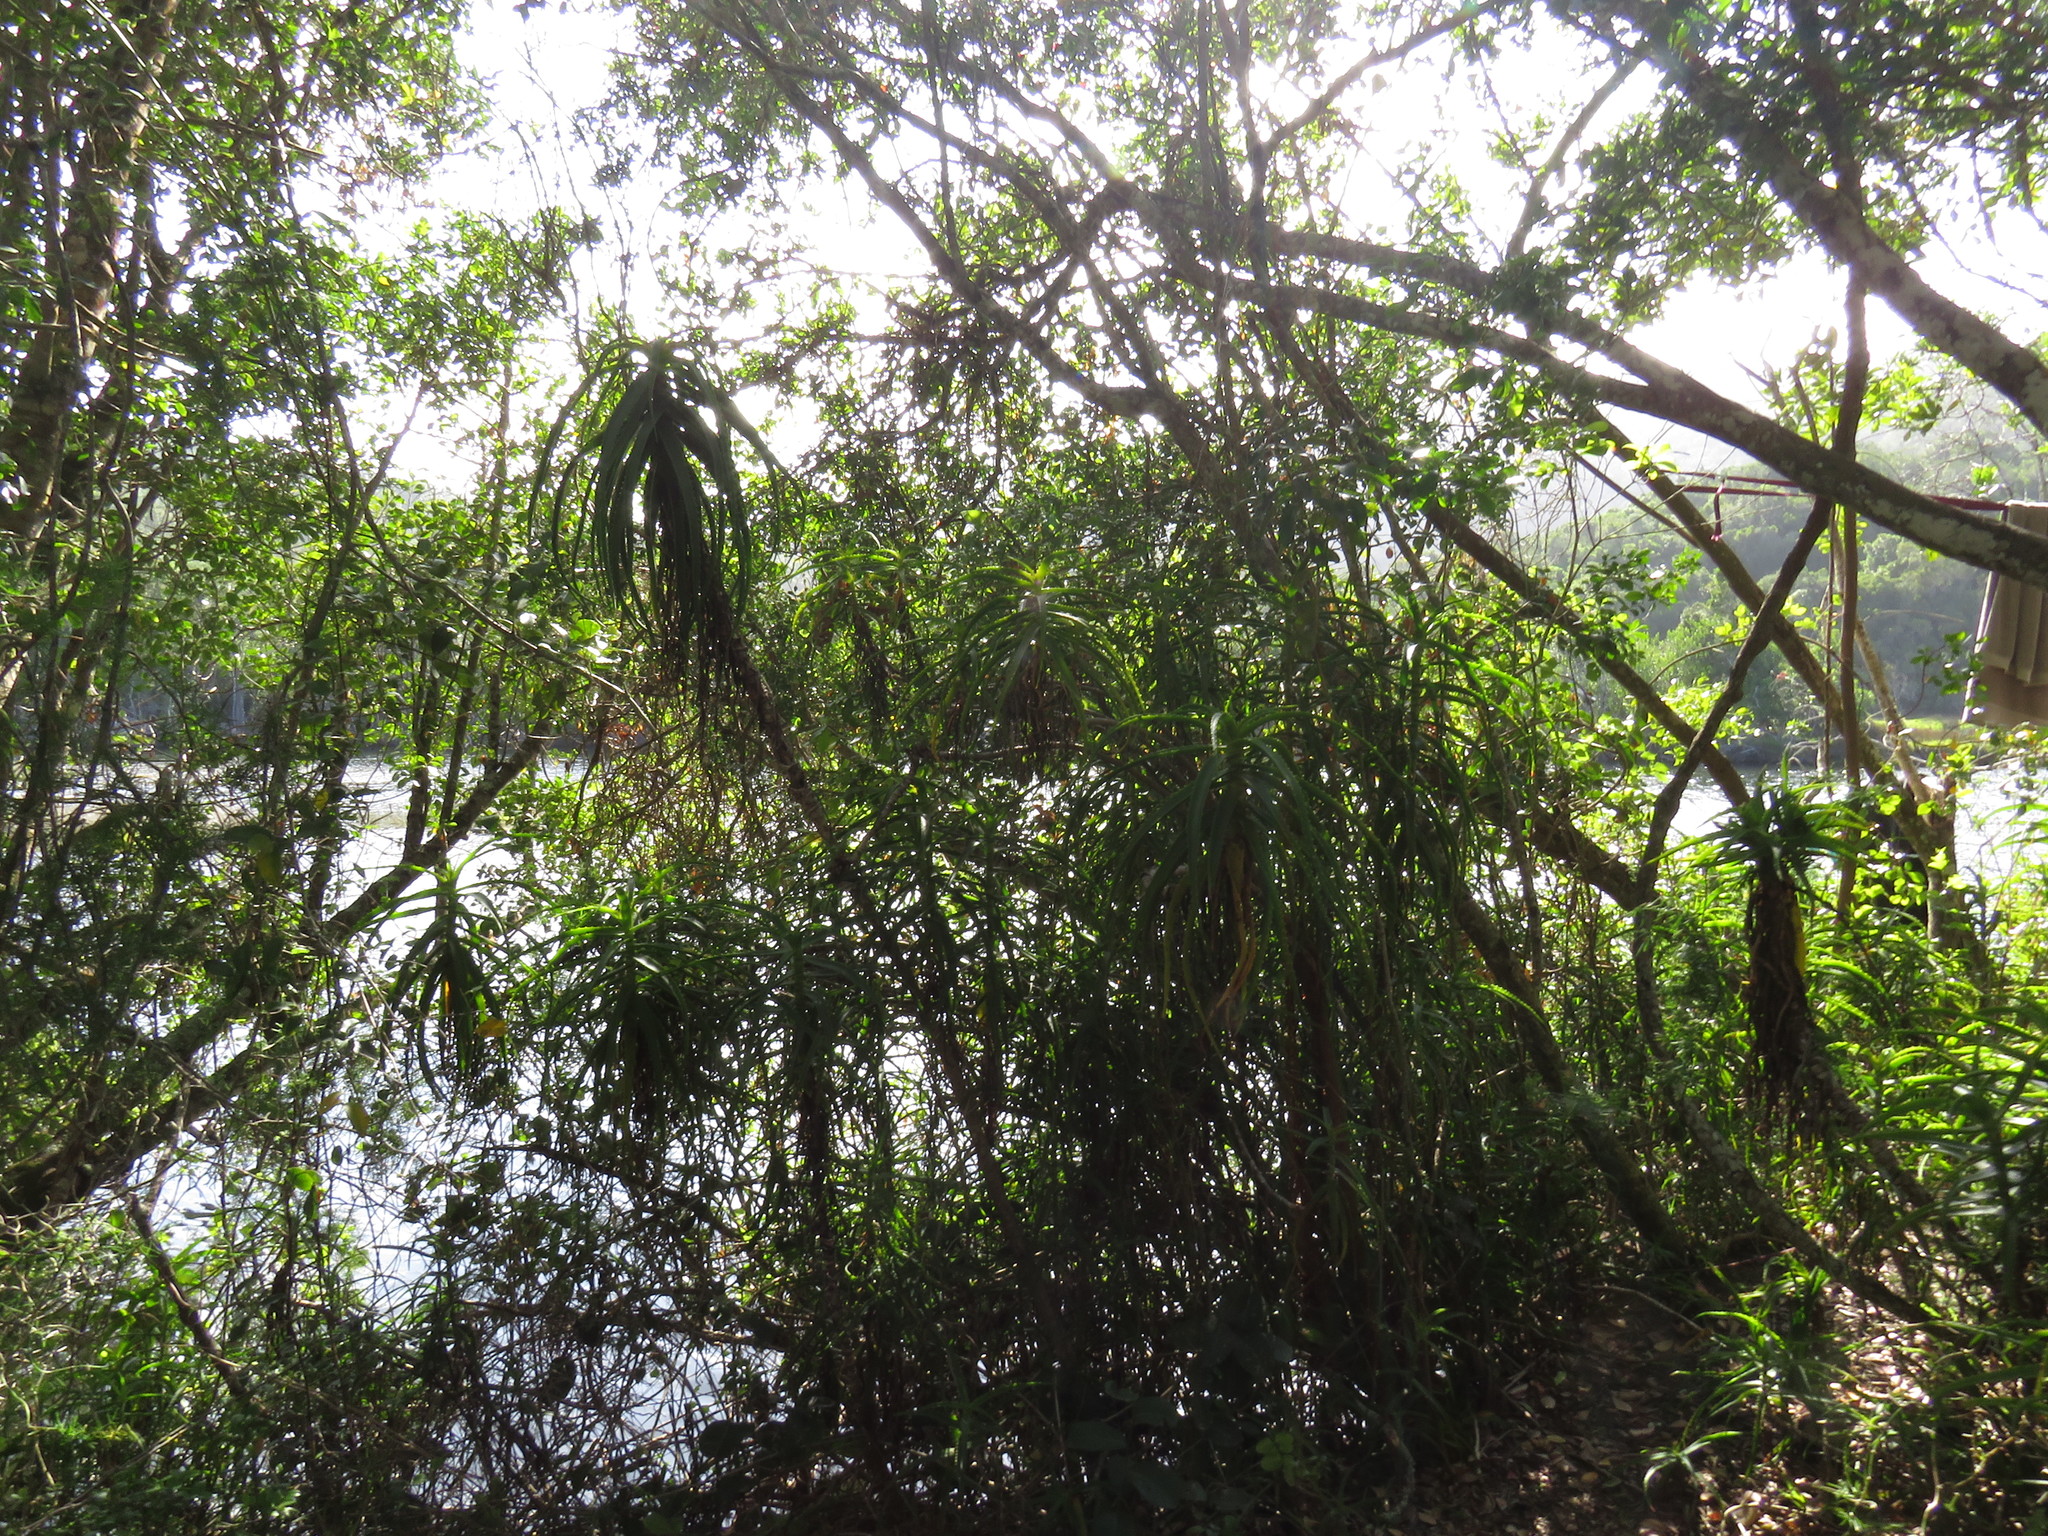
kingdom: Plantae
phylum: Tracheophyta
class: Liliopsida
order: Asparagales
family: Asphodelaceae
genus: Aloe
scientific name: Aloe arborescens
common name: Candelabra aloe
